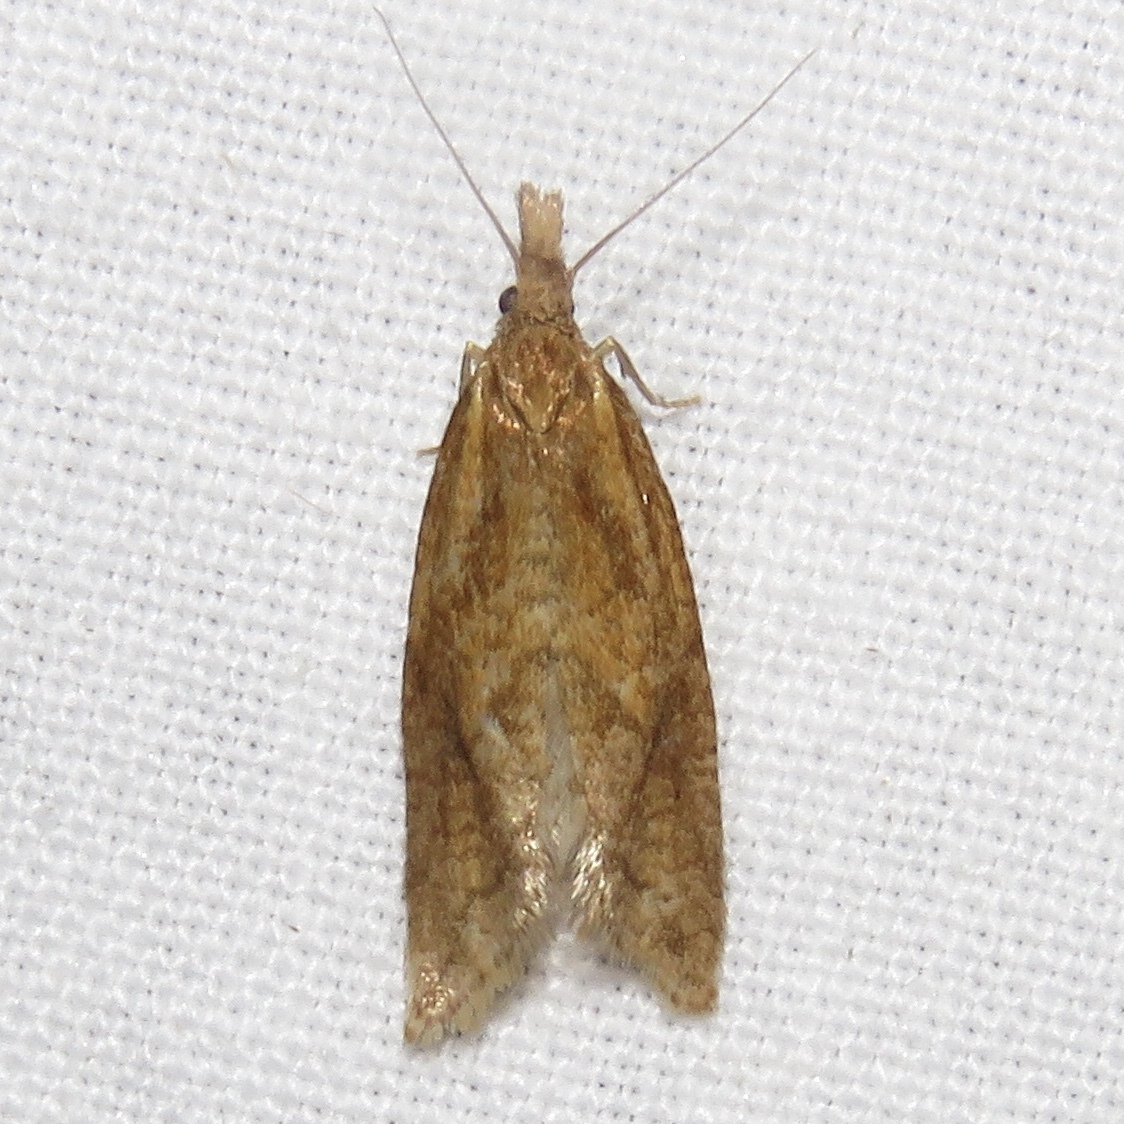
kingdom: Animalia
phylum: Arthropoda
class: Insecta
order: Lepidoptera
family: Tortricidae
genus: Aethes
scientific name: Aethes biscana
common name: Reddish aethes
